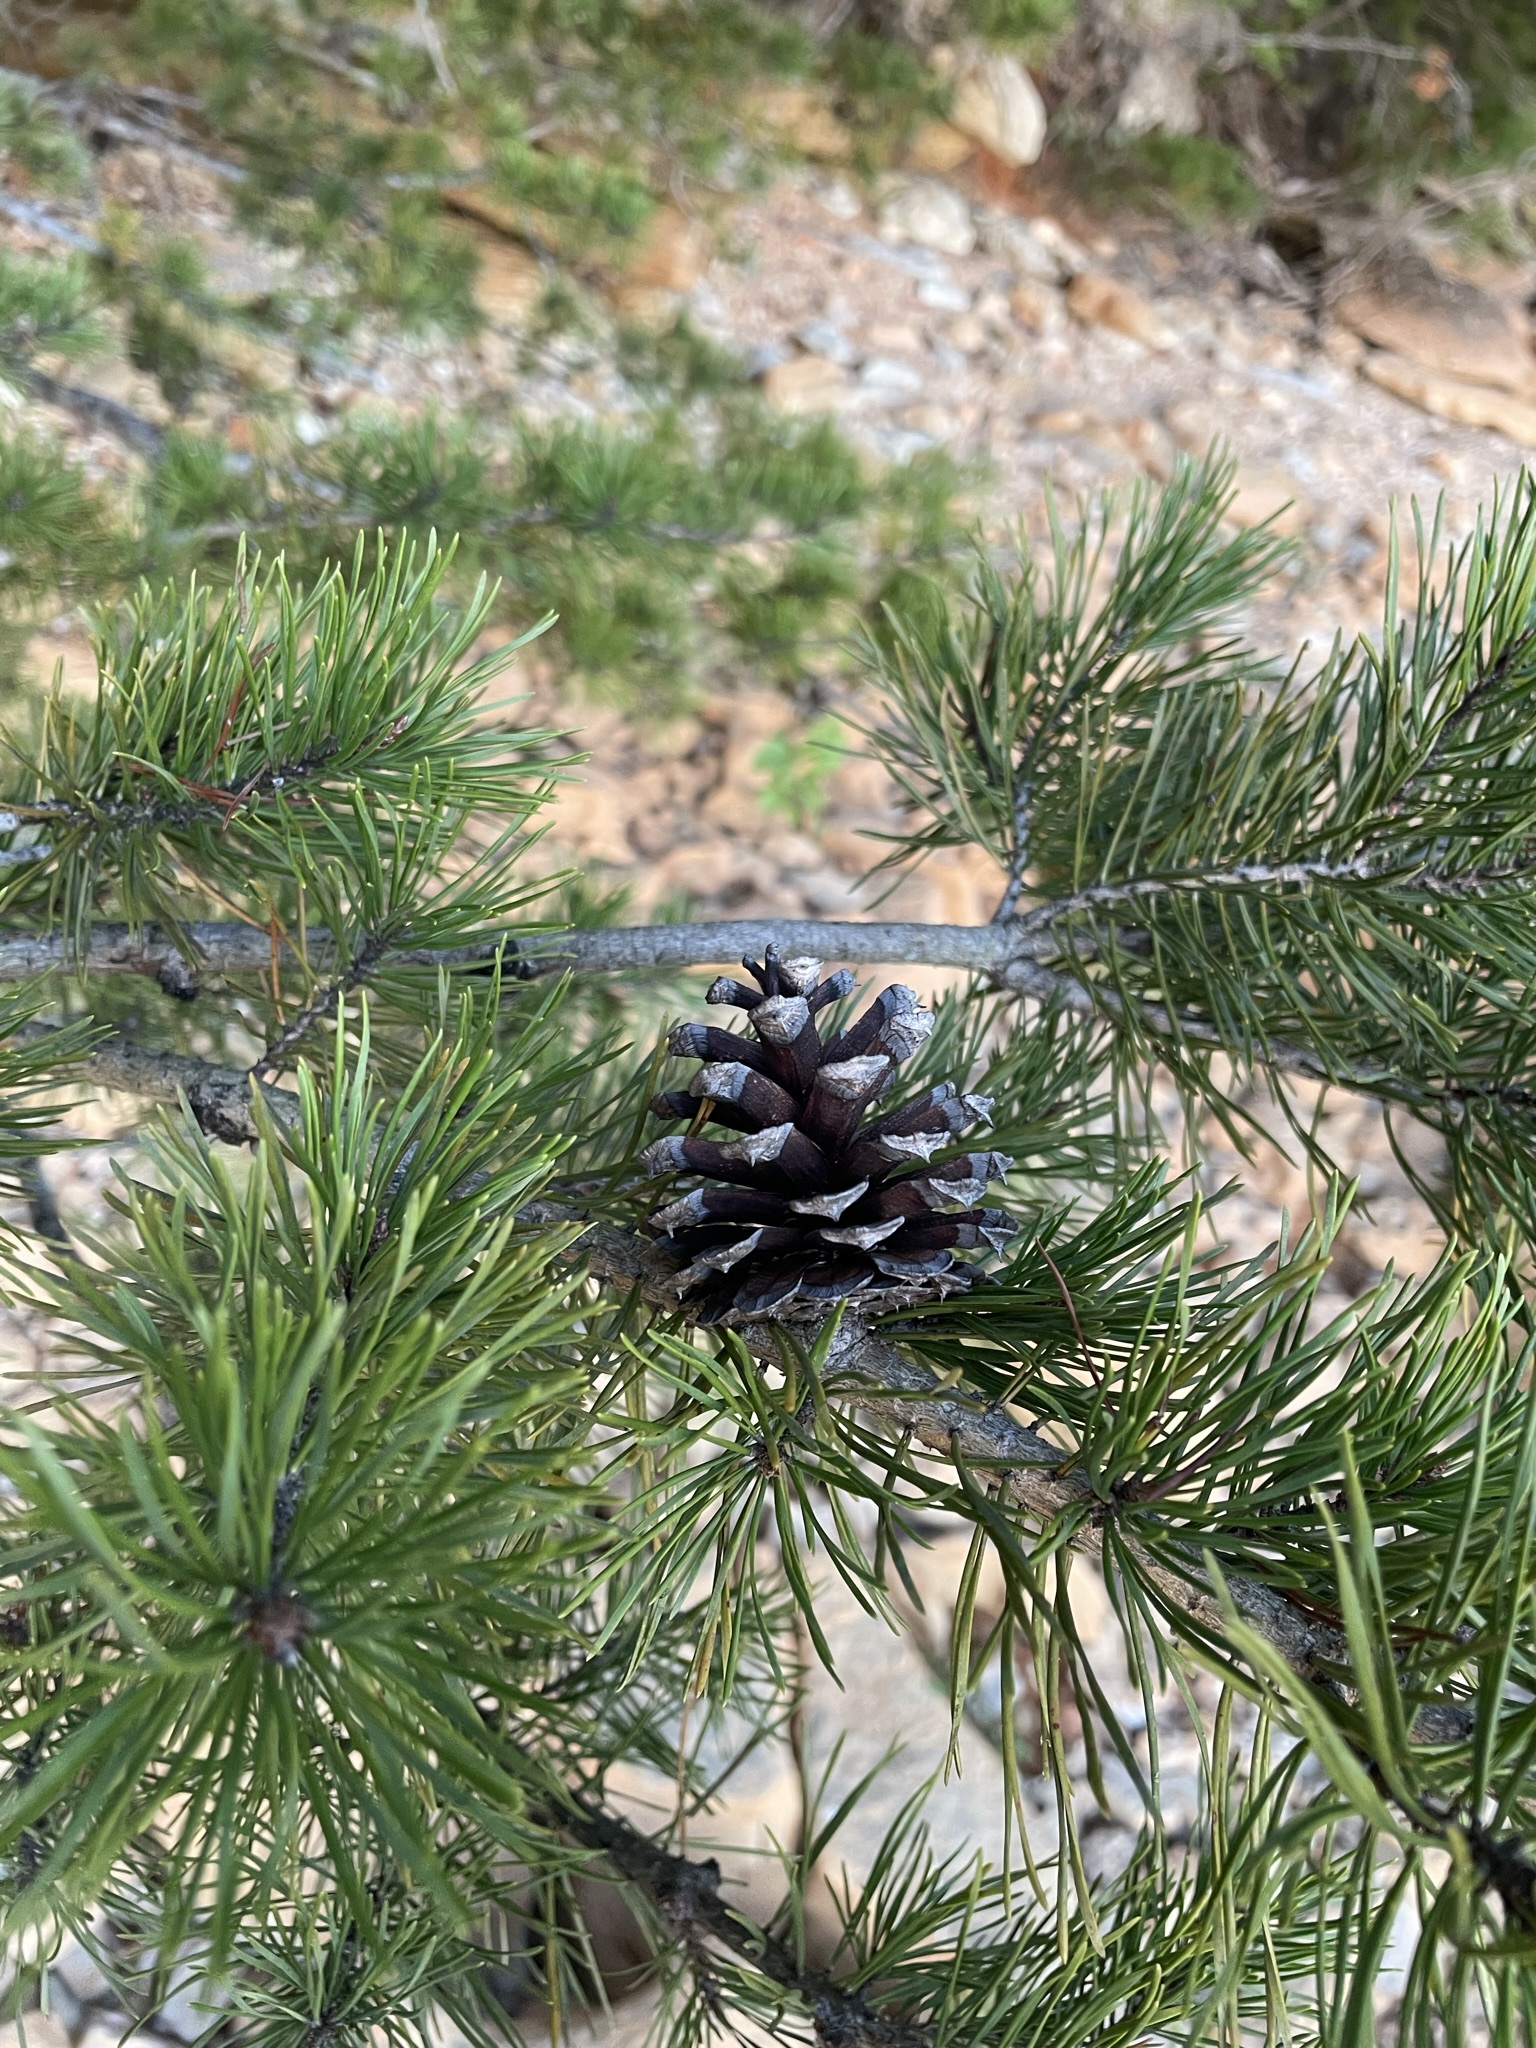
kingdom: Plantae
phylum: Tracheophyta
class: Pinopsida
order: Pinales
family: Pinaceae
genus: Pinus
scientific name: Pinus virginiana
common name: Scrub pine
